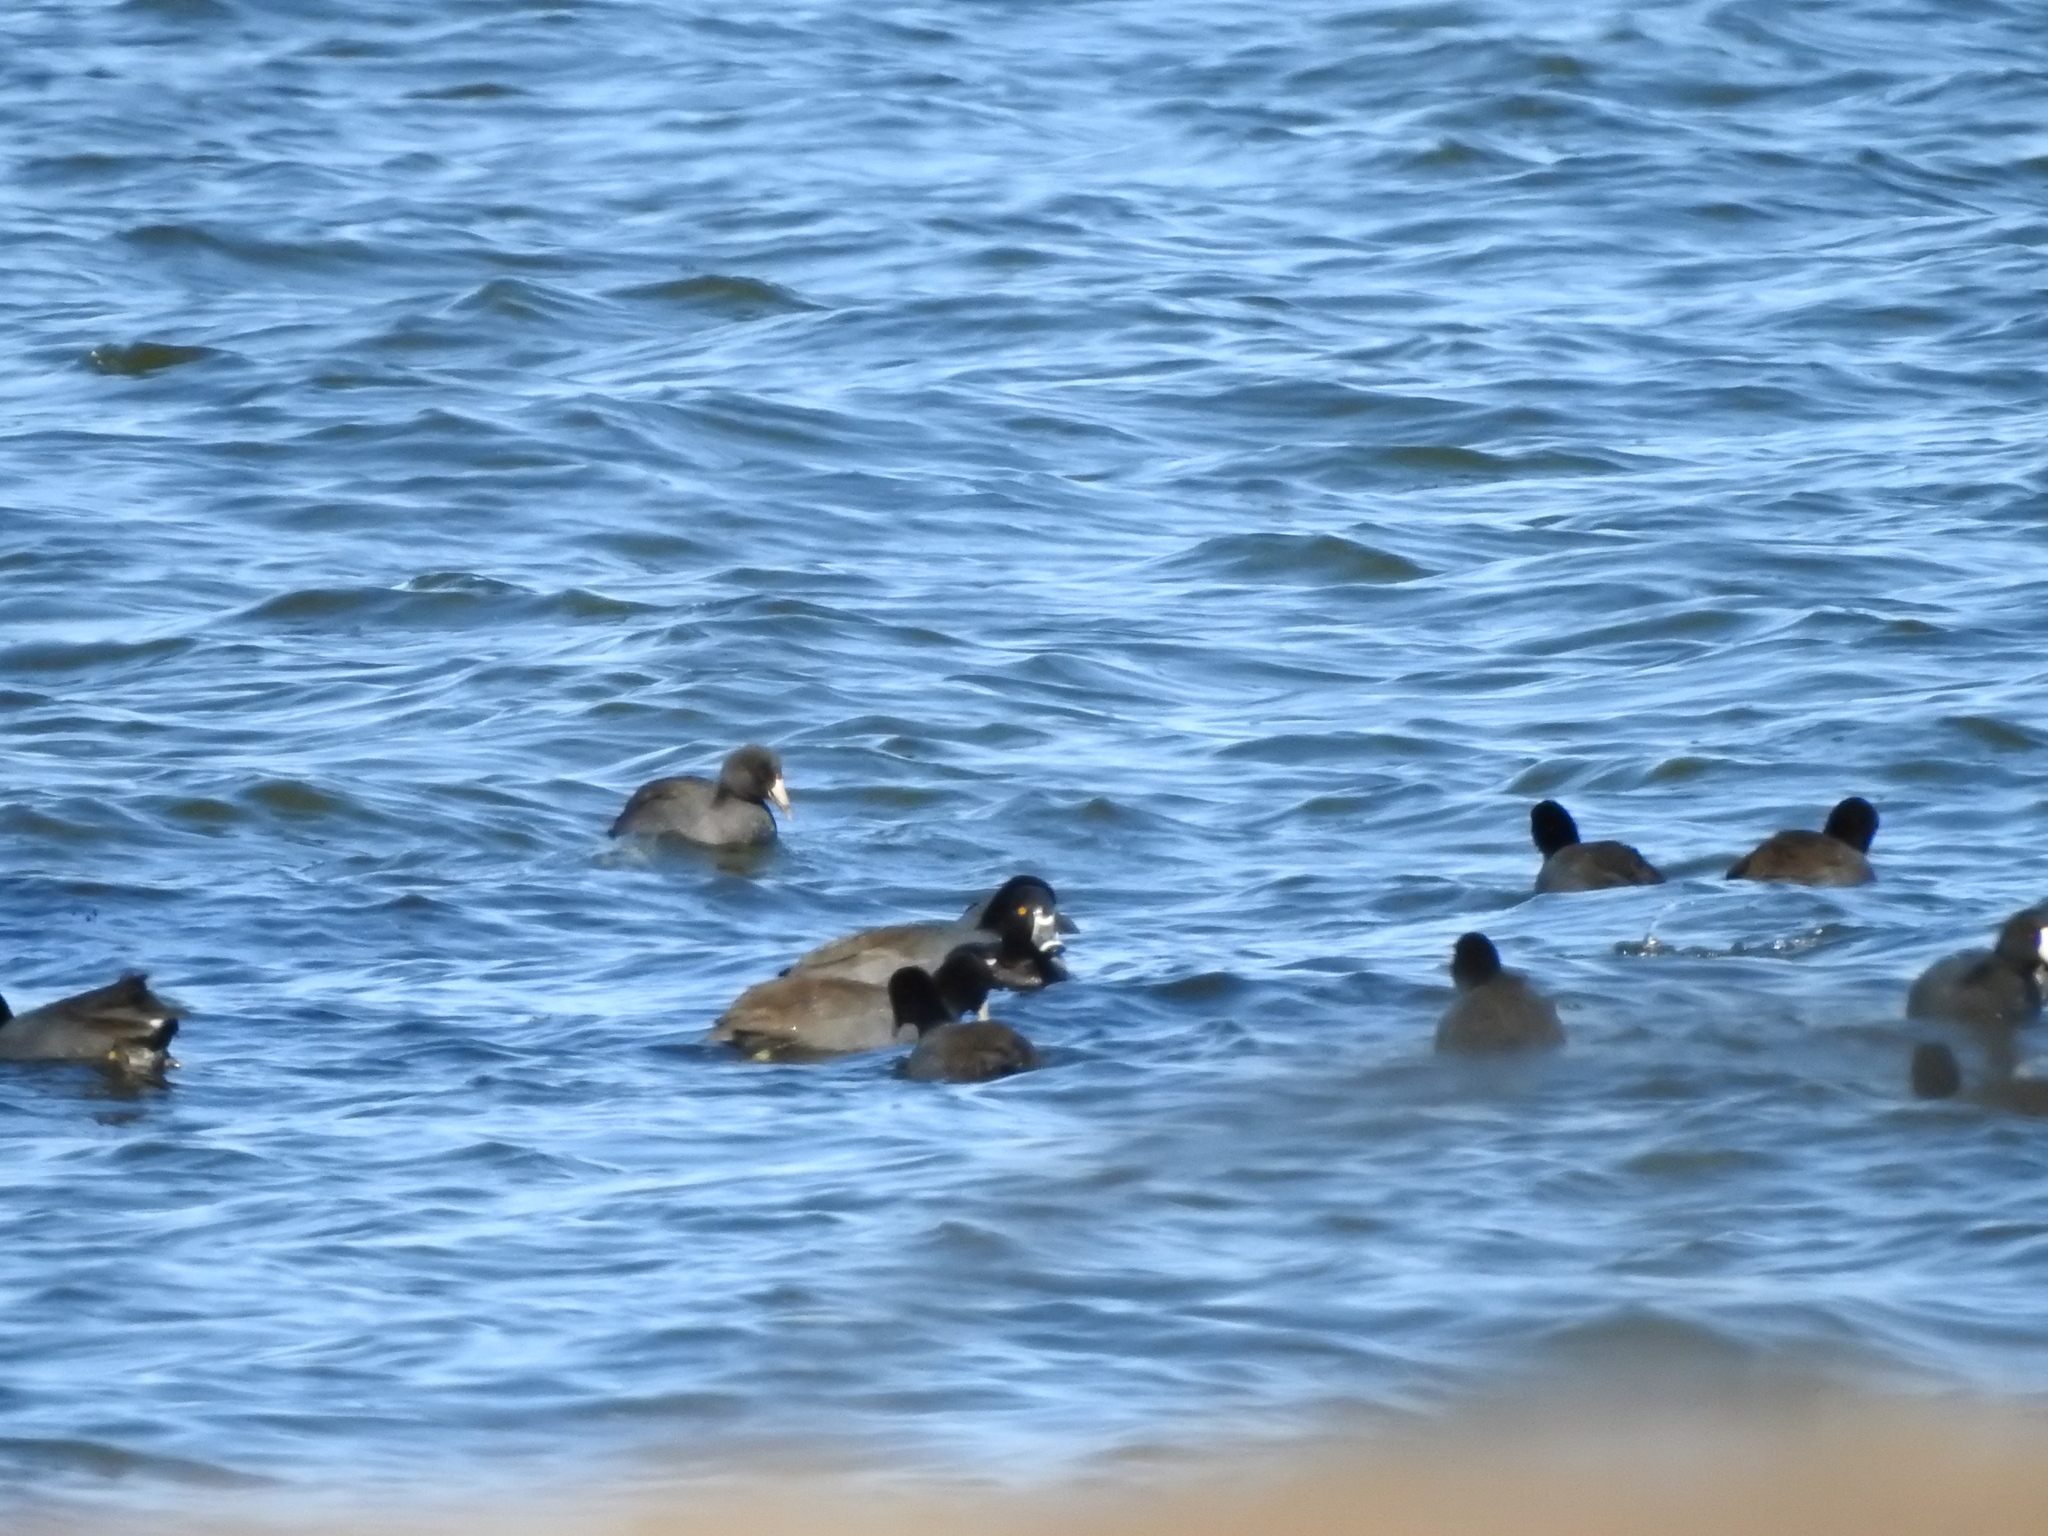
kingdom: Animalia
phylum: Chordata
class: Aves
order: Anseriformes
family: Anatidae
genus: Aythya
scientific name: Aythya collaris
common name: Ring-necked duck
